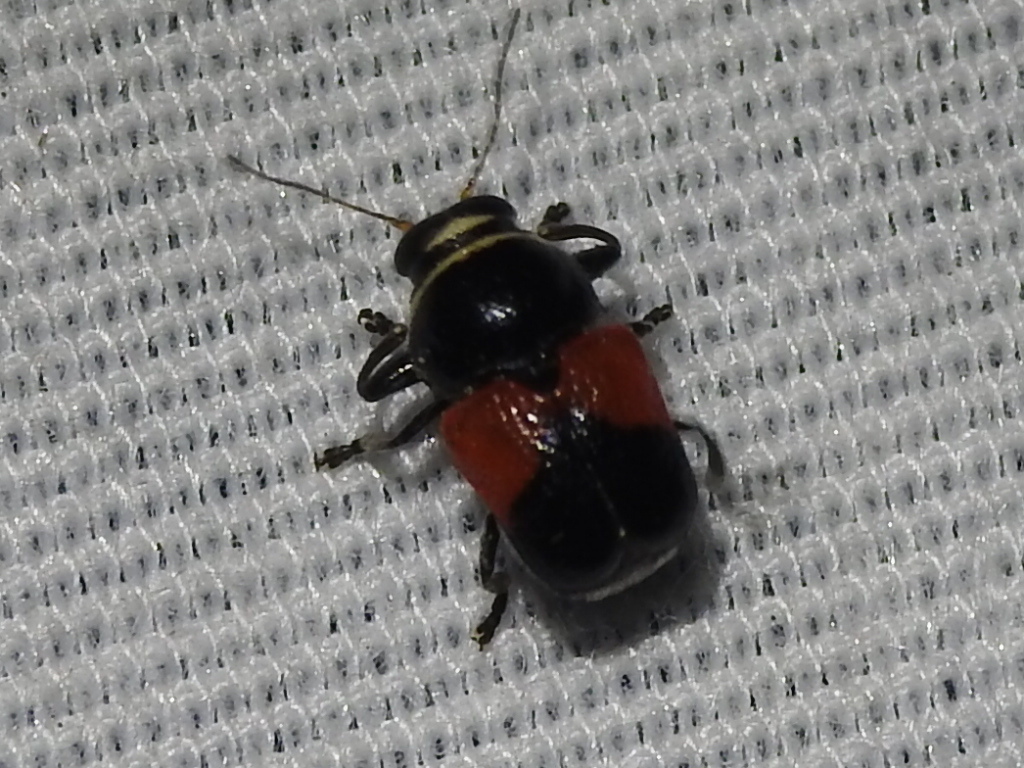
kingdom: Animalia
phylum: Arthropoda
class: Insecta
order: Coleoptera
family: Chrysomelidae
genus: Scelolyperus
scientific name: Scelolyperus lecontii
